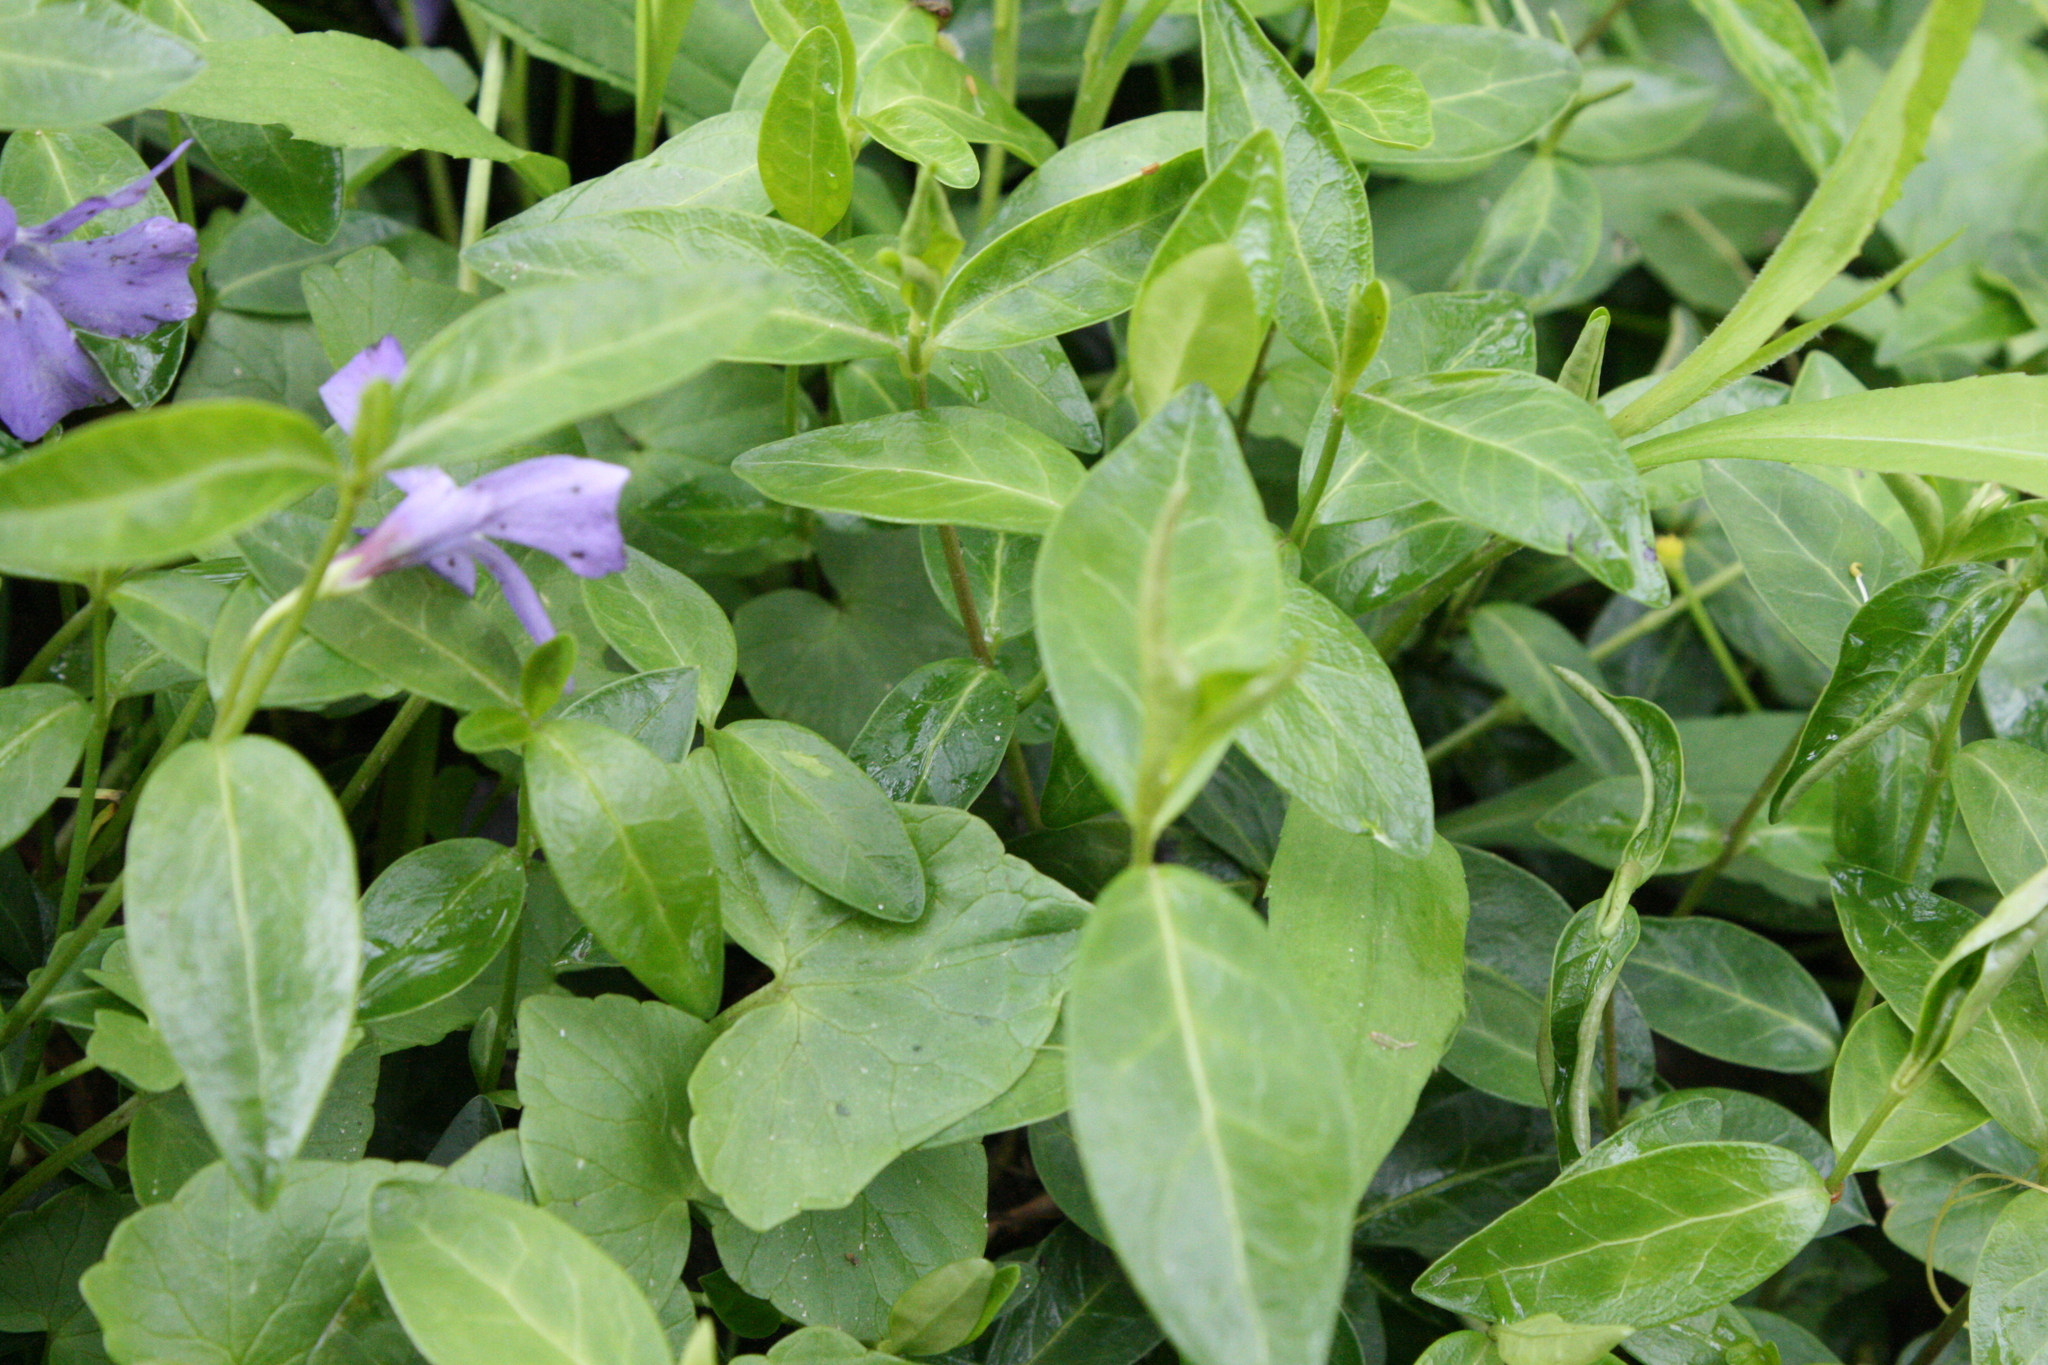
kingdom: Plantae
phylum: Tracheophyta
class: Magnoliopsida
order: Gentianales
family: Apocynaceae
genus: Vinca
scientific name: Vinca minor
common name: Lesser periwinkle
